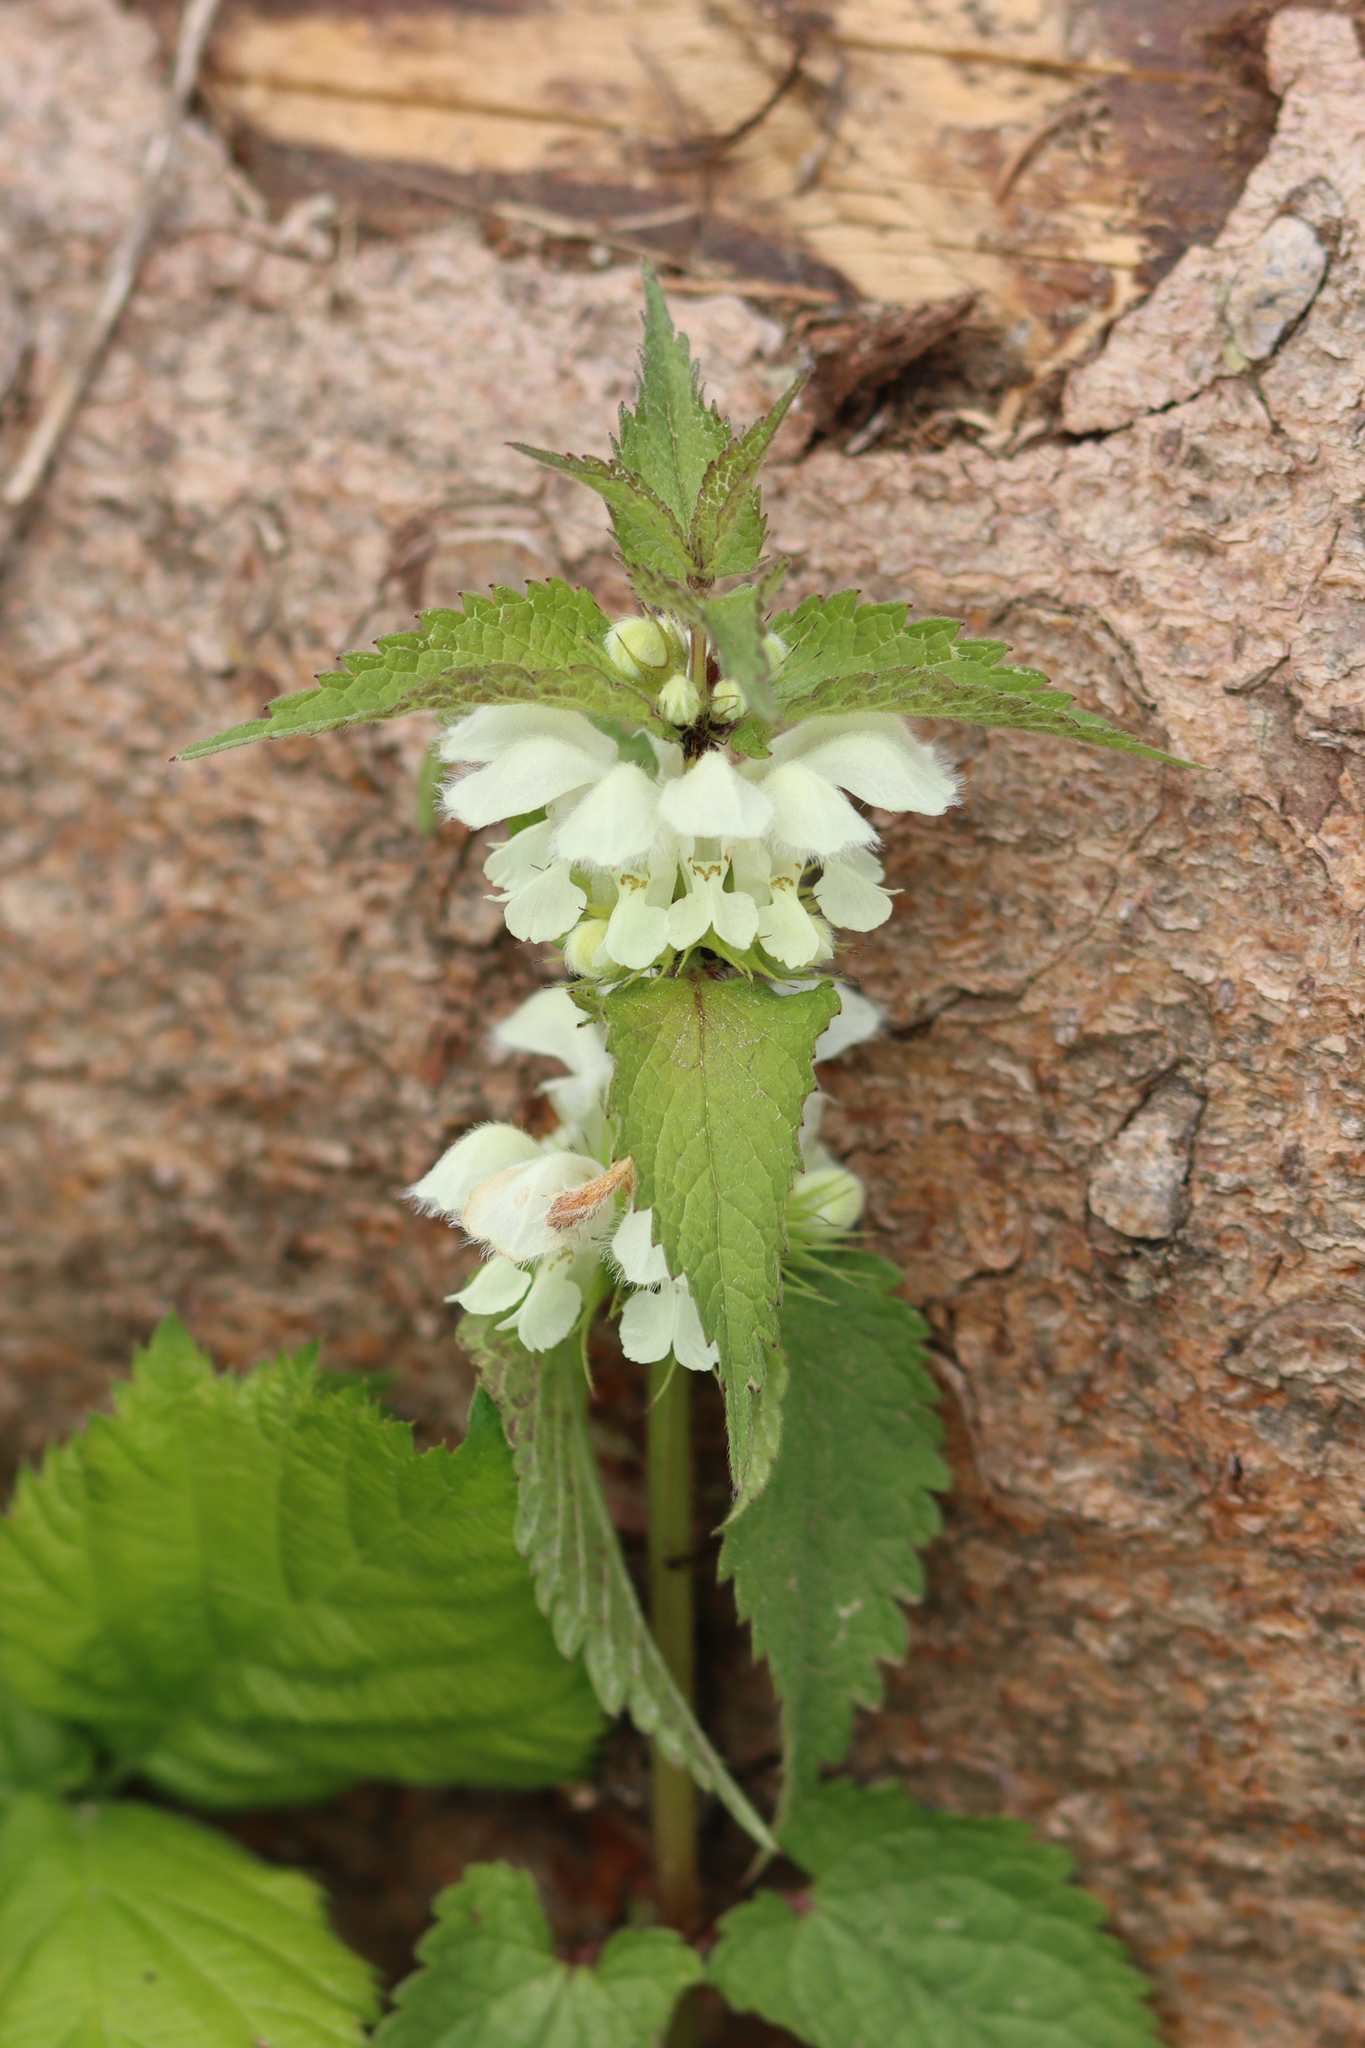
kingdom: Plantae
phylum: Tracheophyta
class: Magnoliopsida
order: Lamiales
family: Lamiaceae
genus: Lamium
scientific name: Lamium album
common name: White dead-nettle
